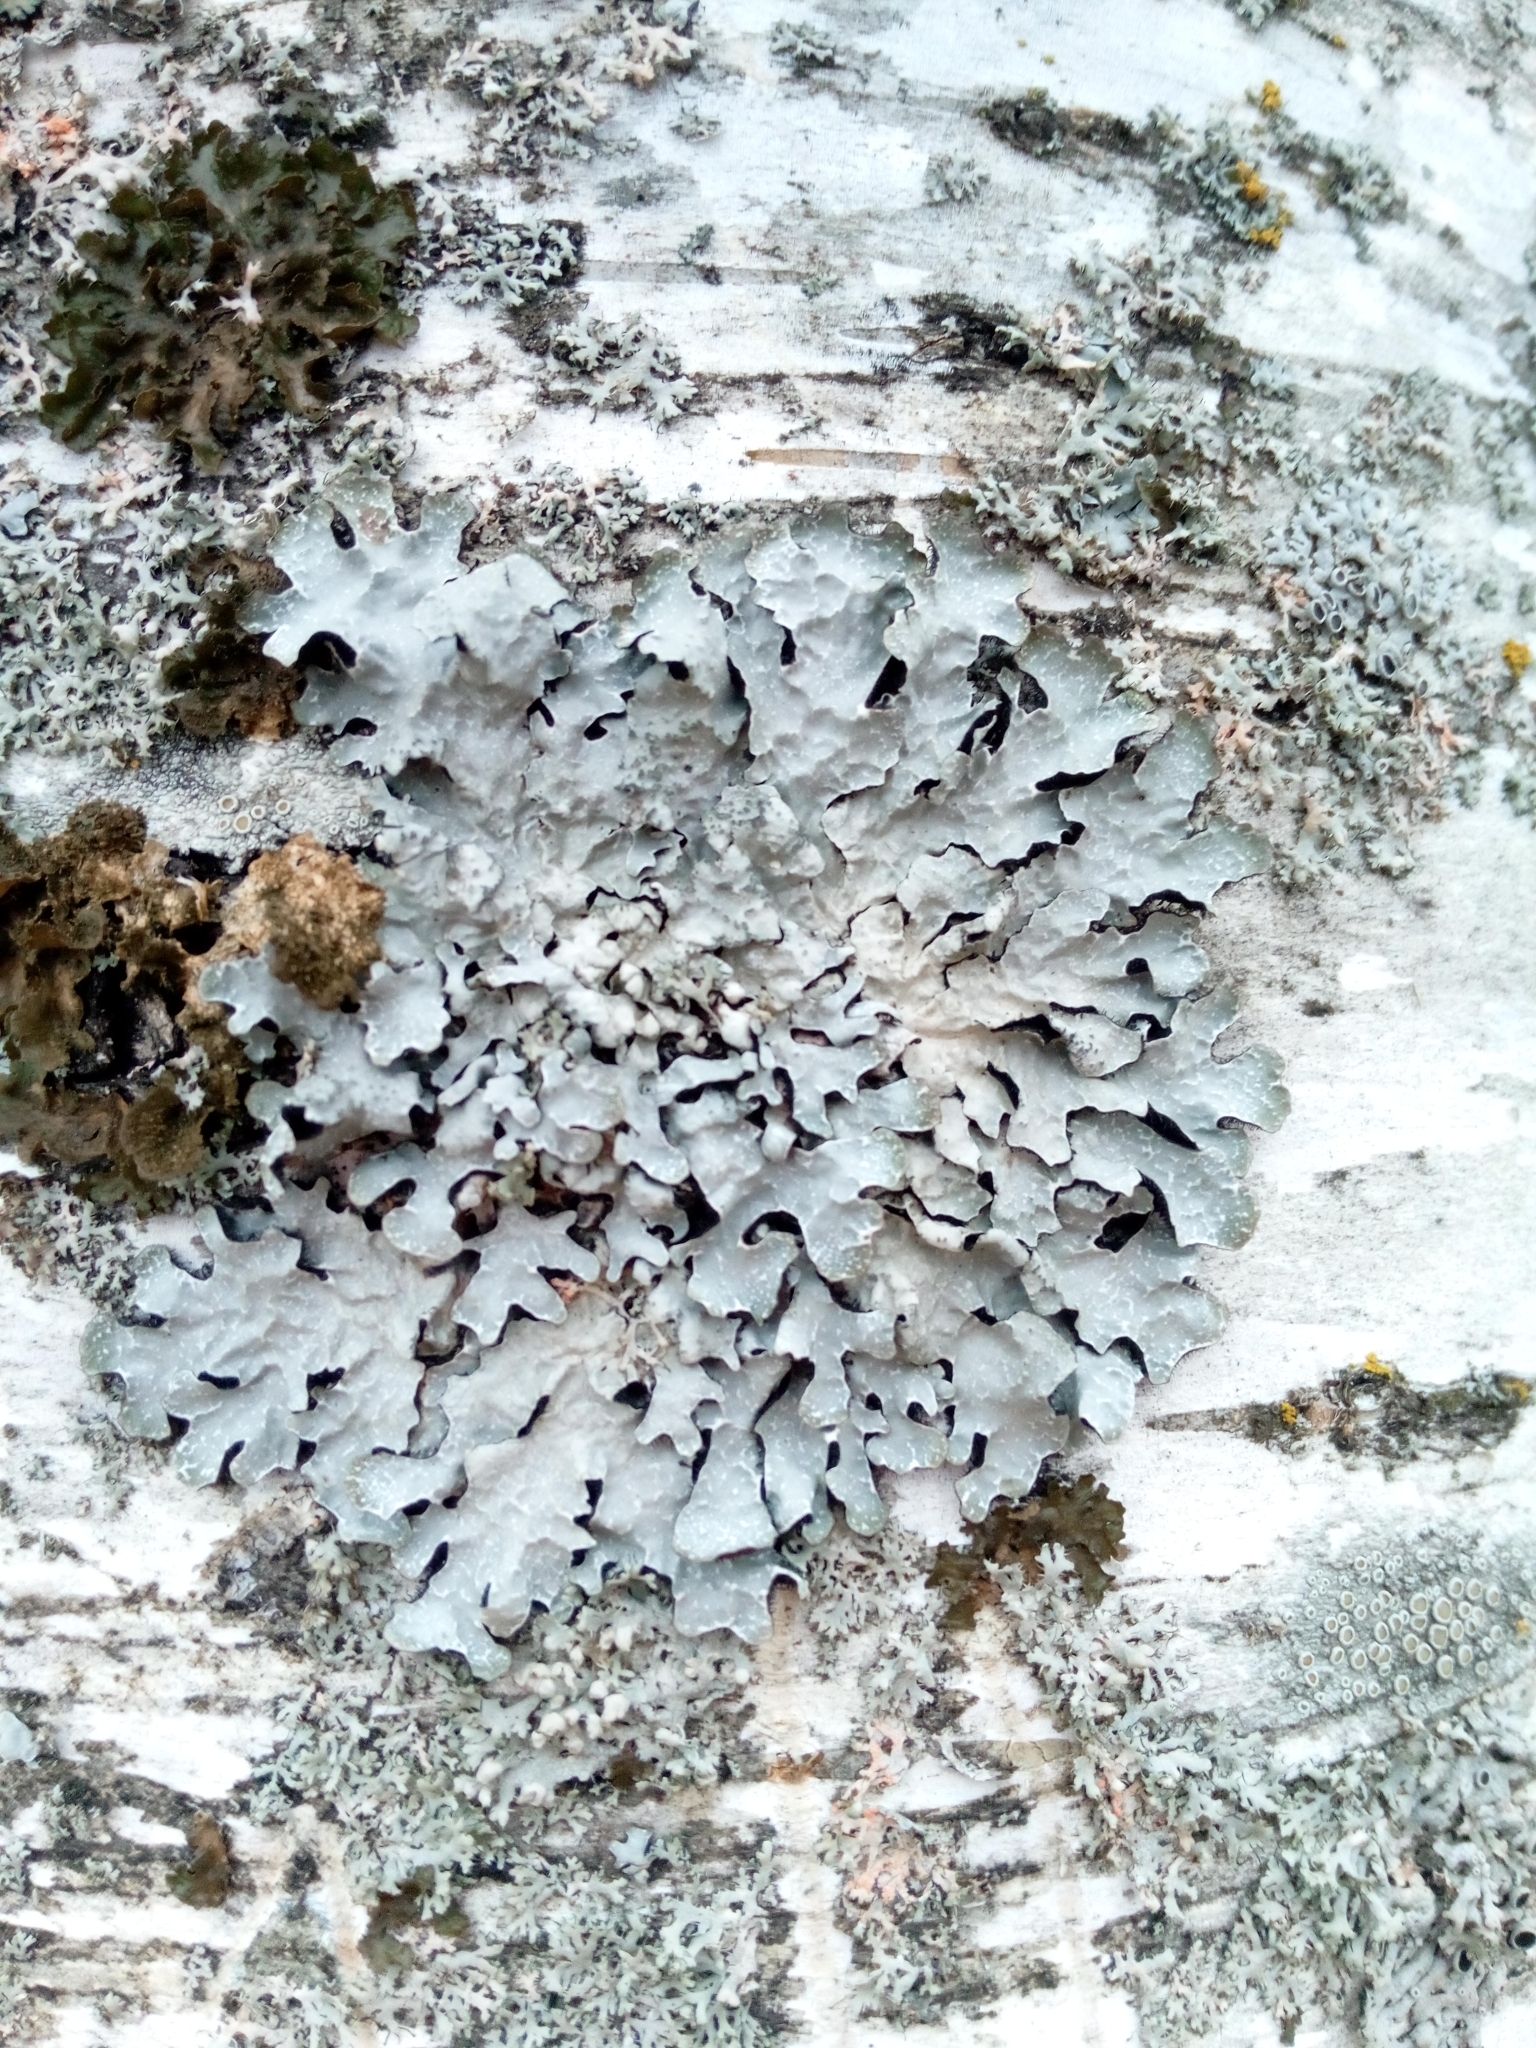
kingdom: Fungi
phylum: Ascomycota
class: Lecanoromycetes
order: Lecanorales
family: Parmeliaceae
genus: Parmelia
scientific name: Parmelia sulcata
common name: Netted shield lichen
